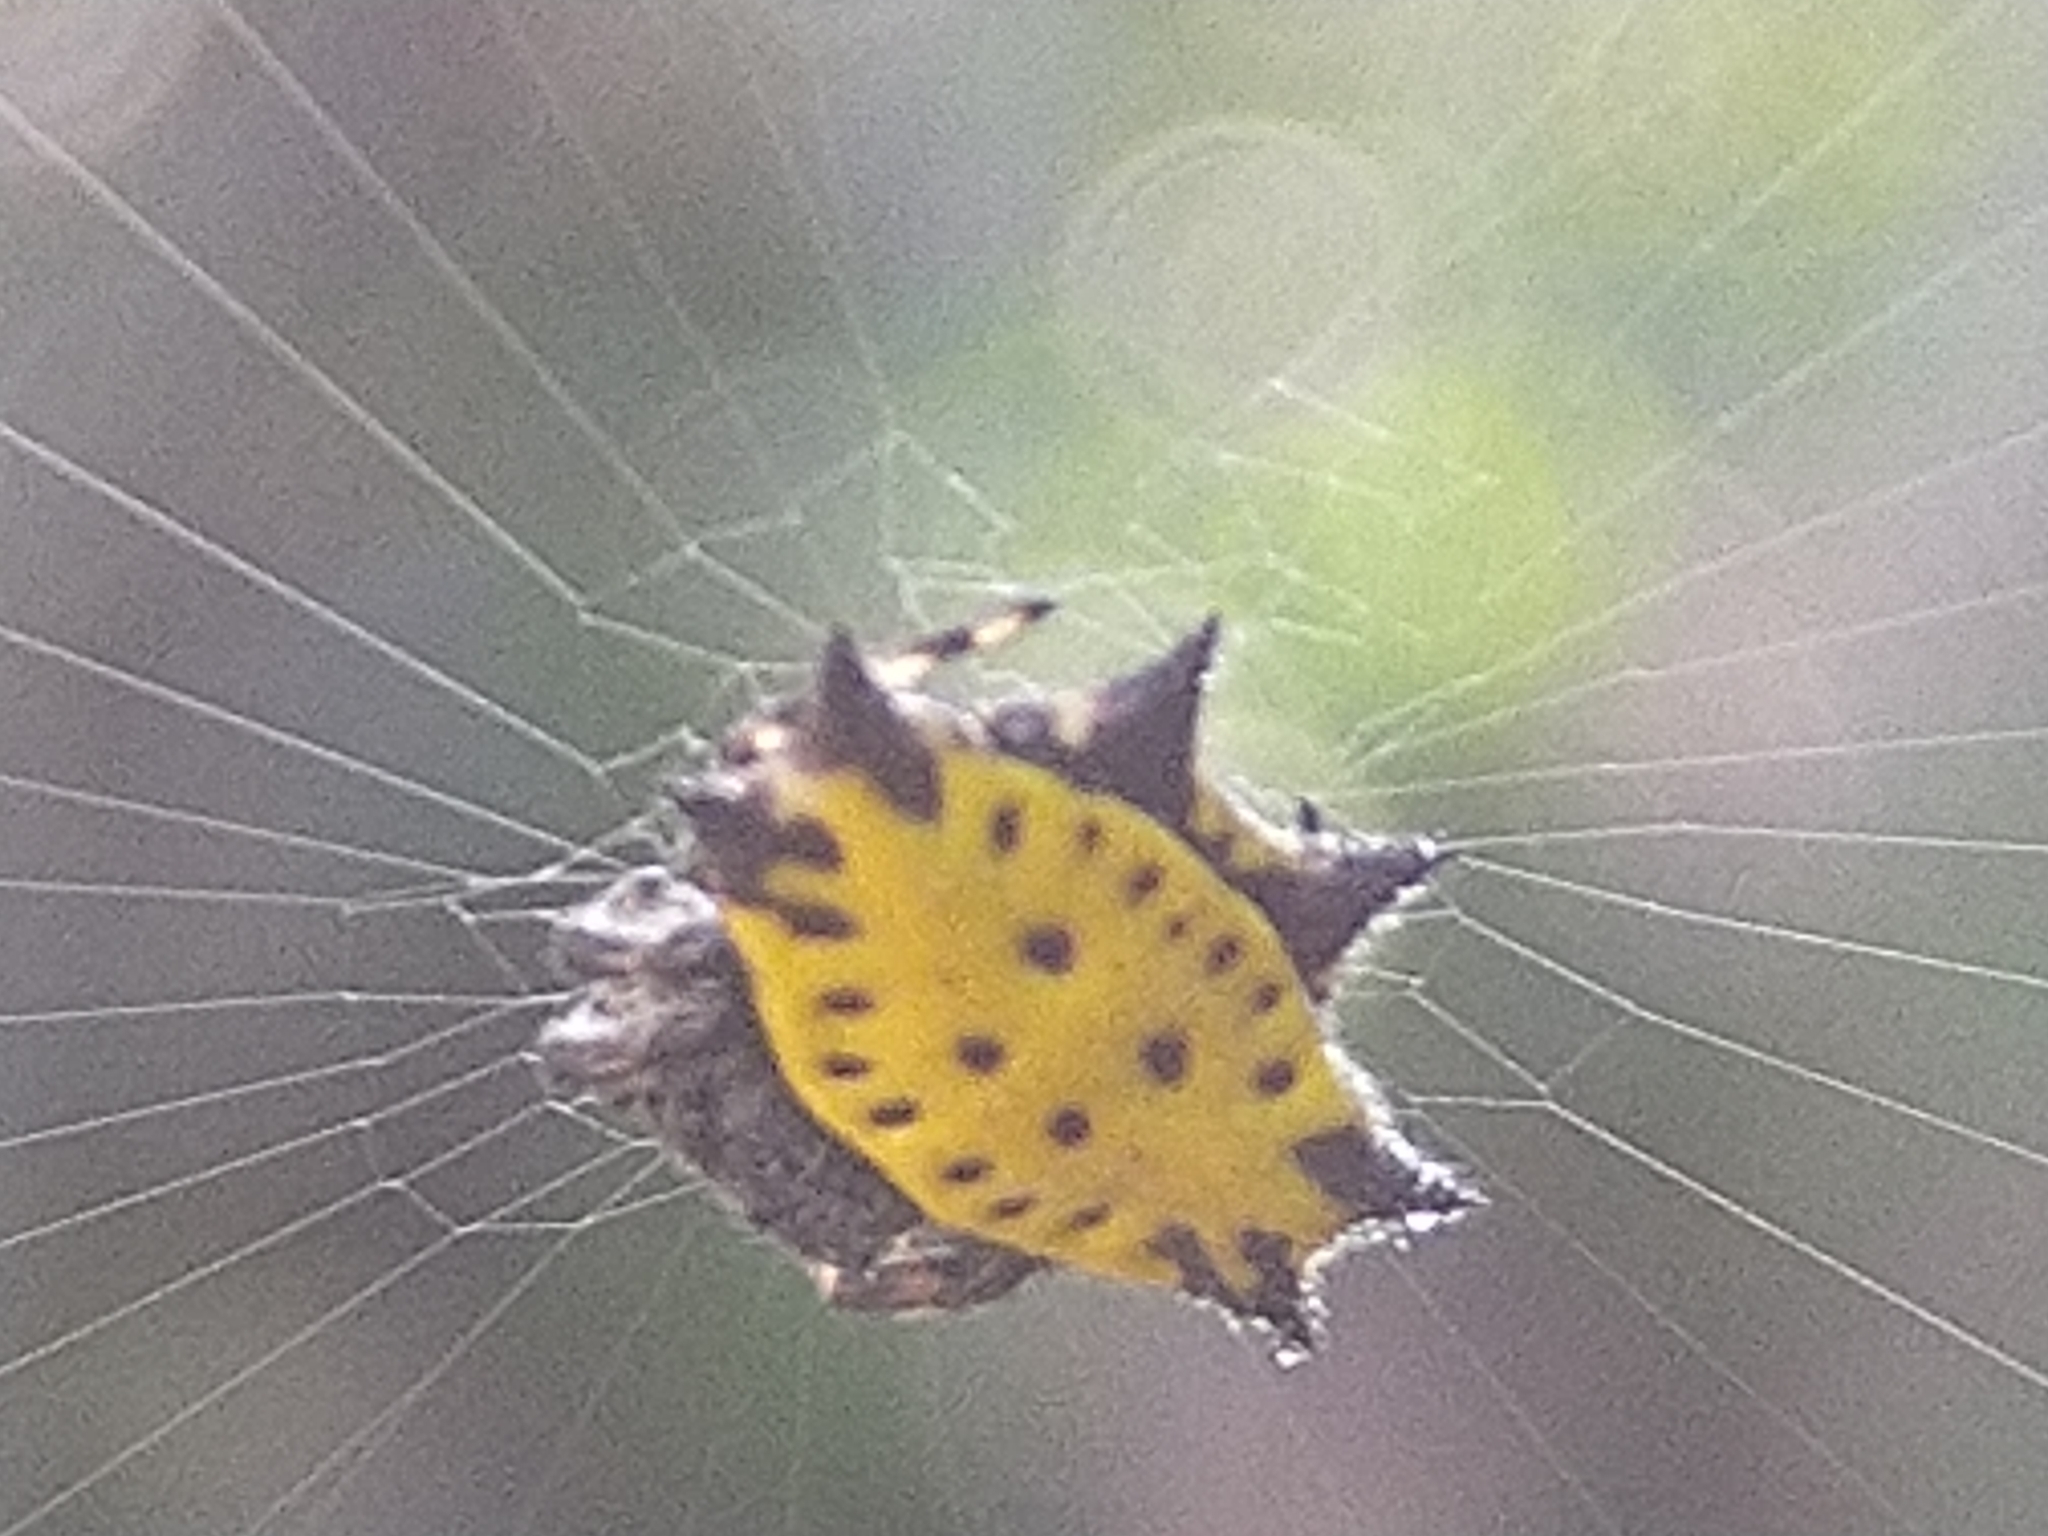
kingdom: Animalia
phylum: Arthropoda
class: Arachnida
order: Araneae
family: Araneidae
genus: Gasteracantha
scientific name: Gasteracantha cancriformis
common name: Orb weavers
